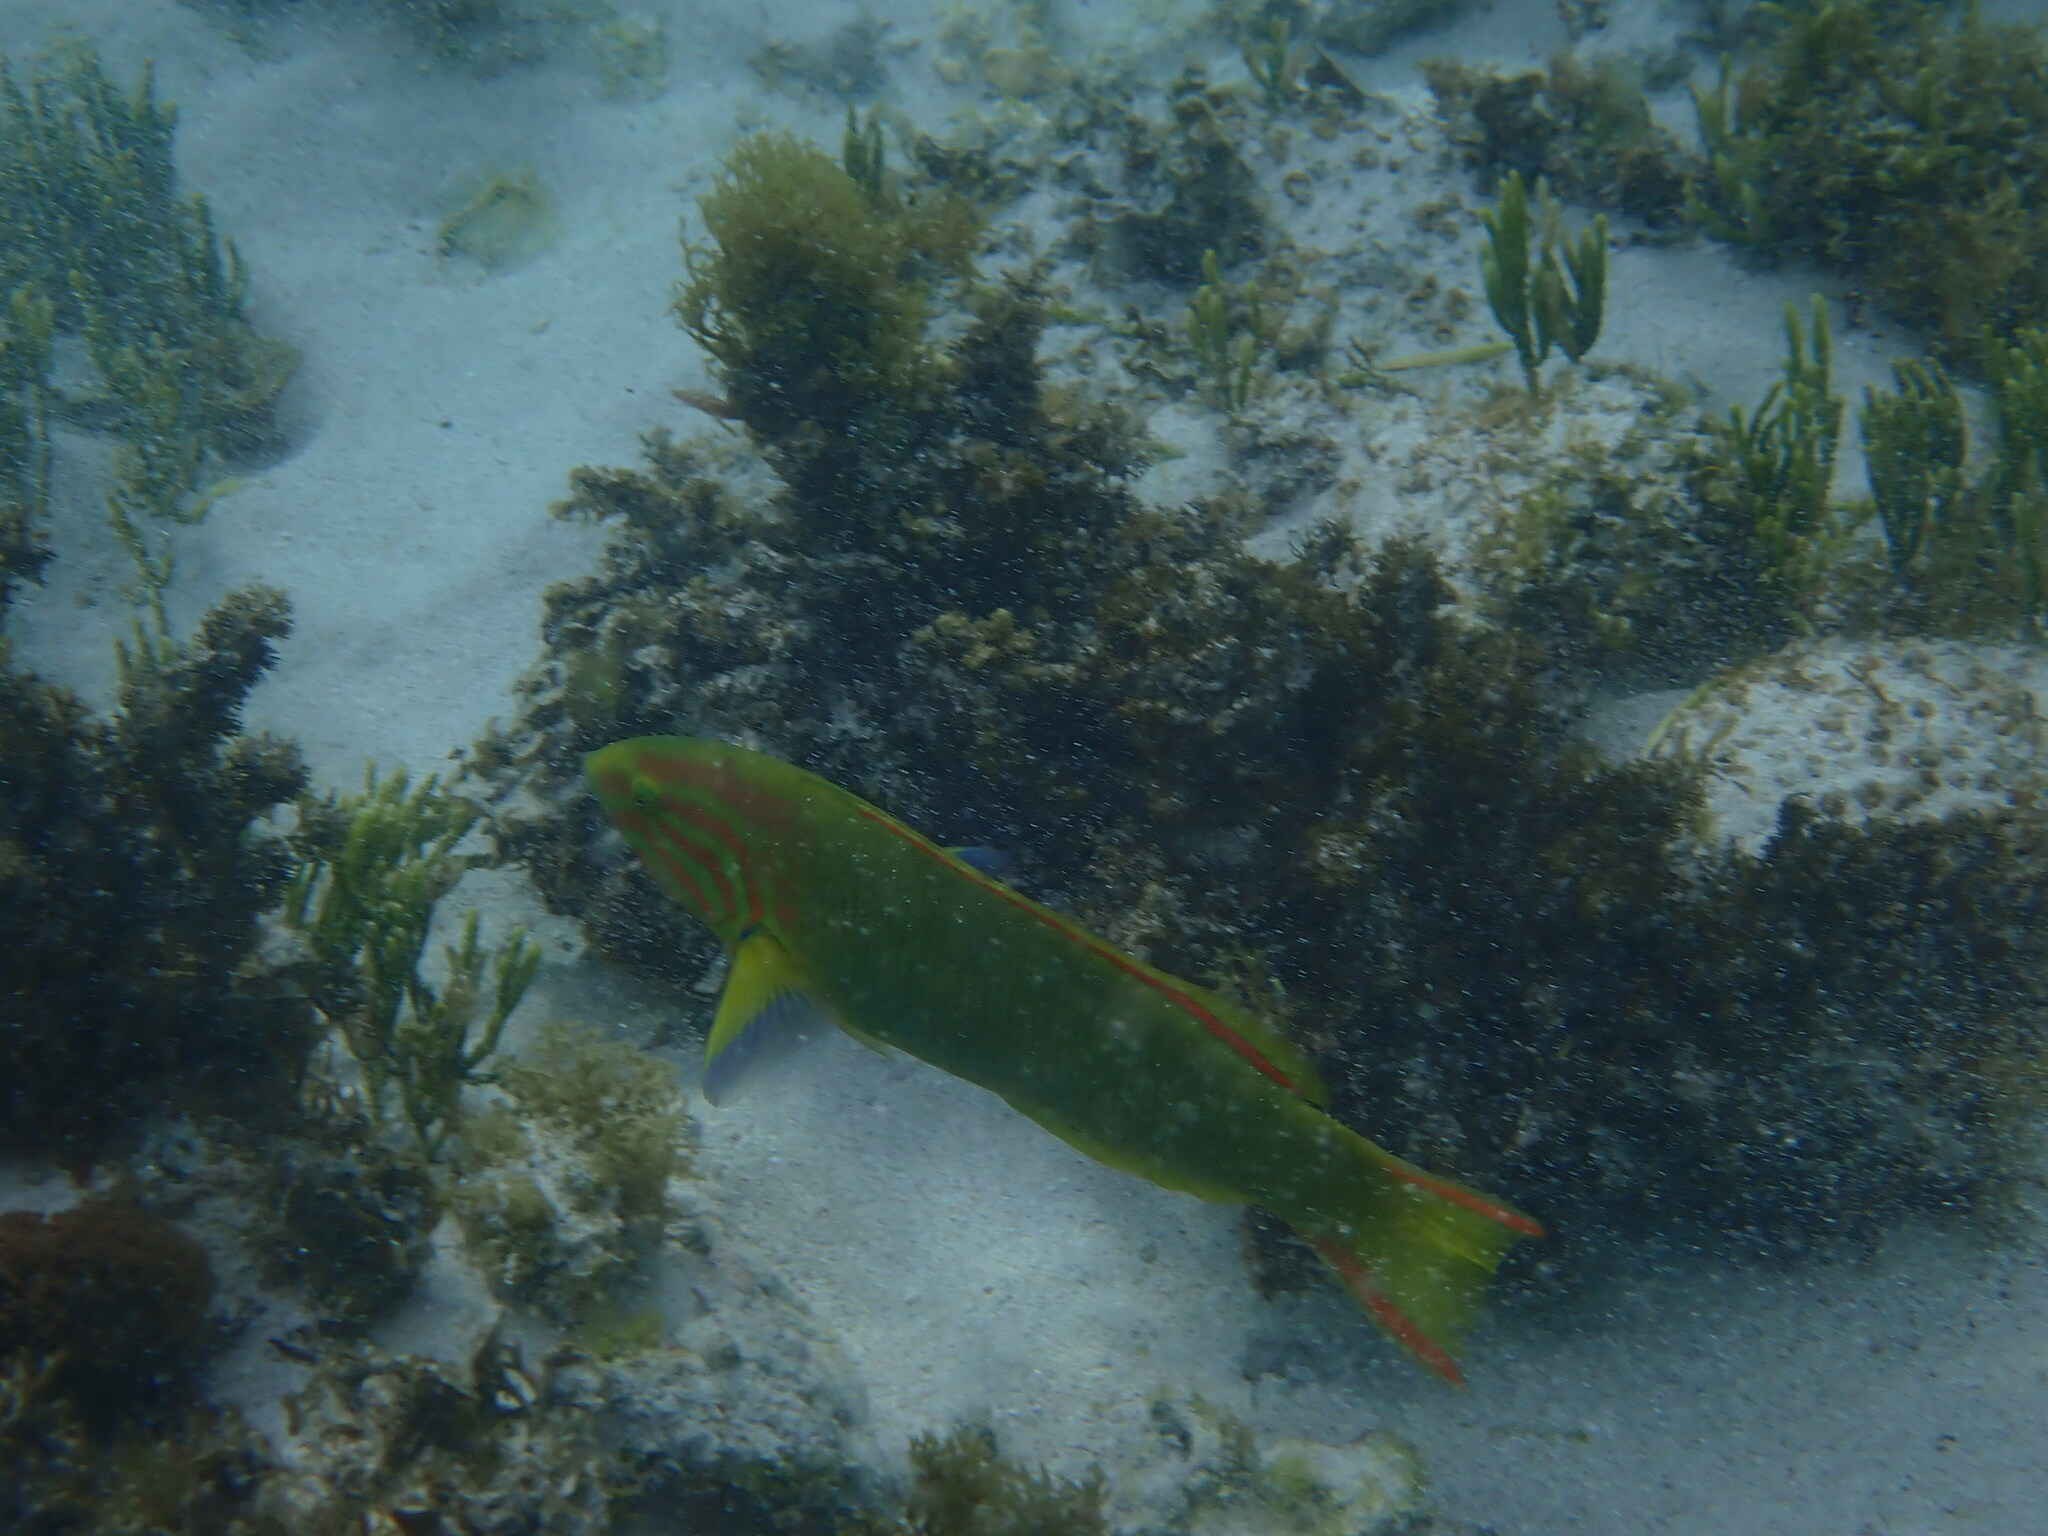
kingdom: Animalia
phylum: Chordata
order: Perciformes
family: Labridae
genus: Thalassoma
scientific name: Thalassoma lutescens
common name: Green moon wrasse
